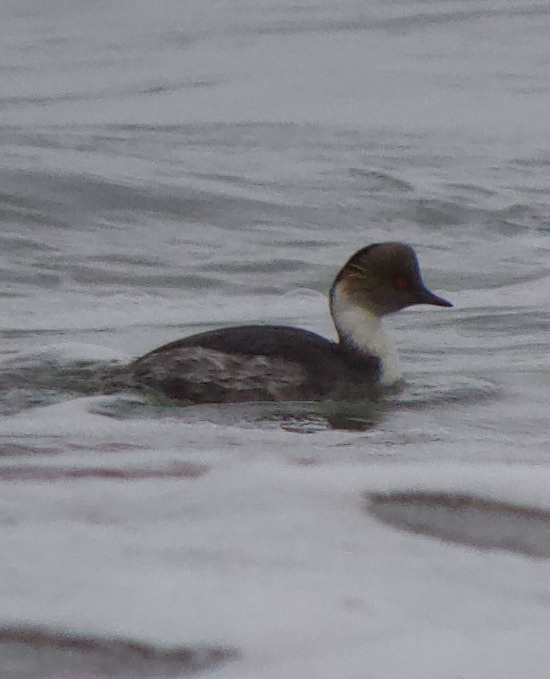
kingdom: Animalia
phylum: Chordata
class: Aves
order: Podicipediformes
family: Podicipedidae
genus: Podiceps
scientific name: Podiceps occipitalis
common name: Silvery grebe
